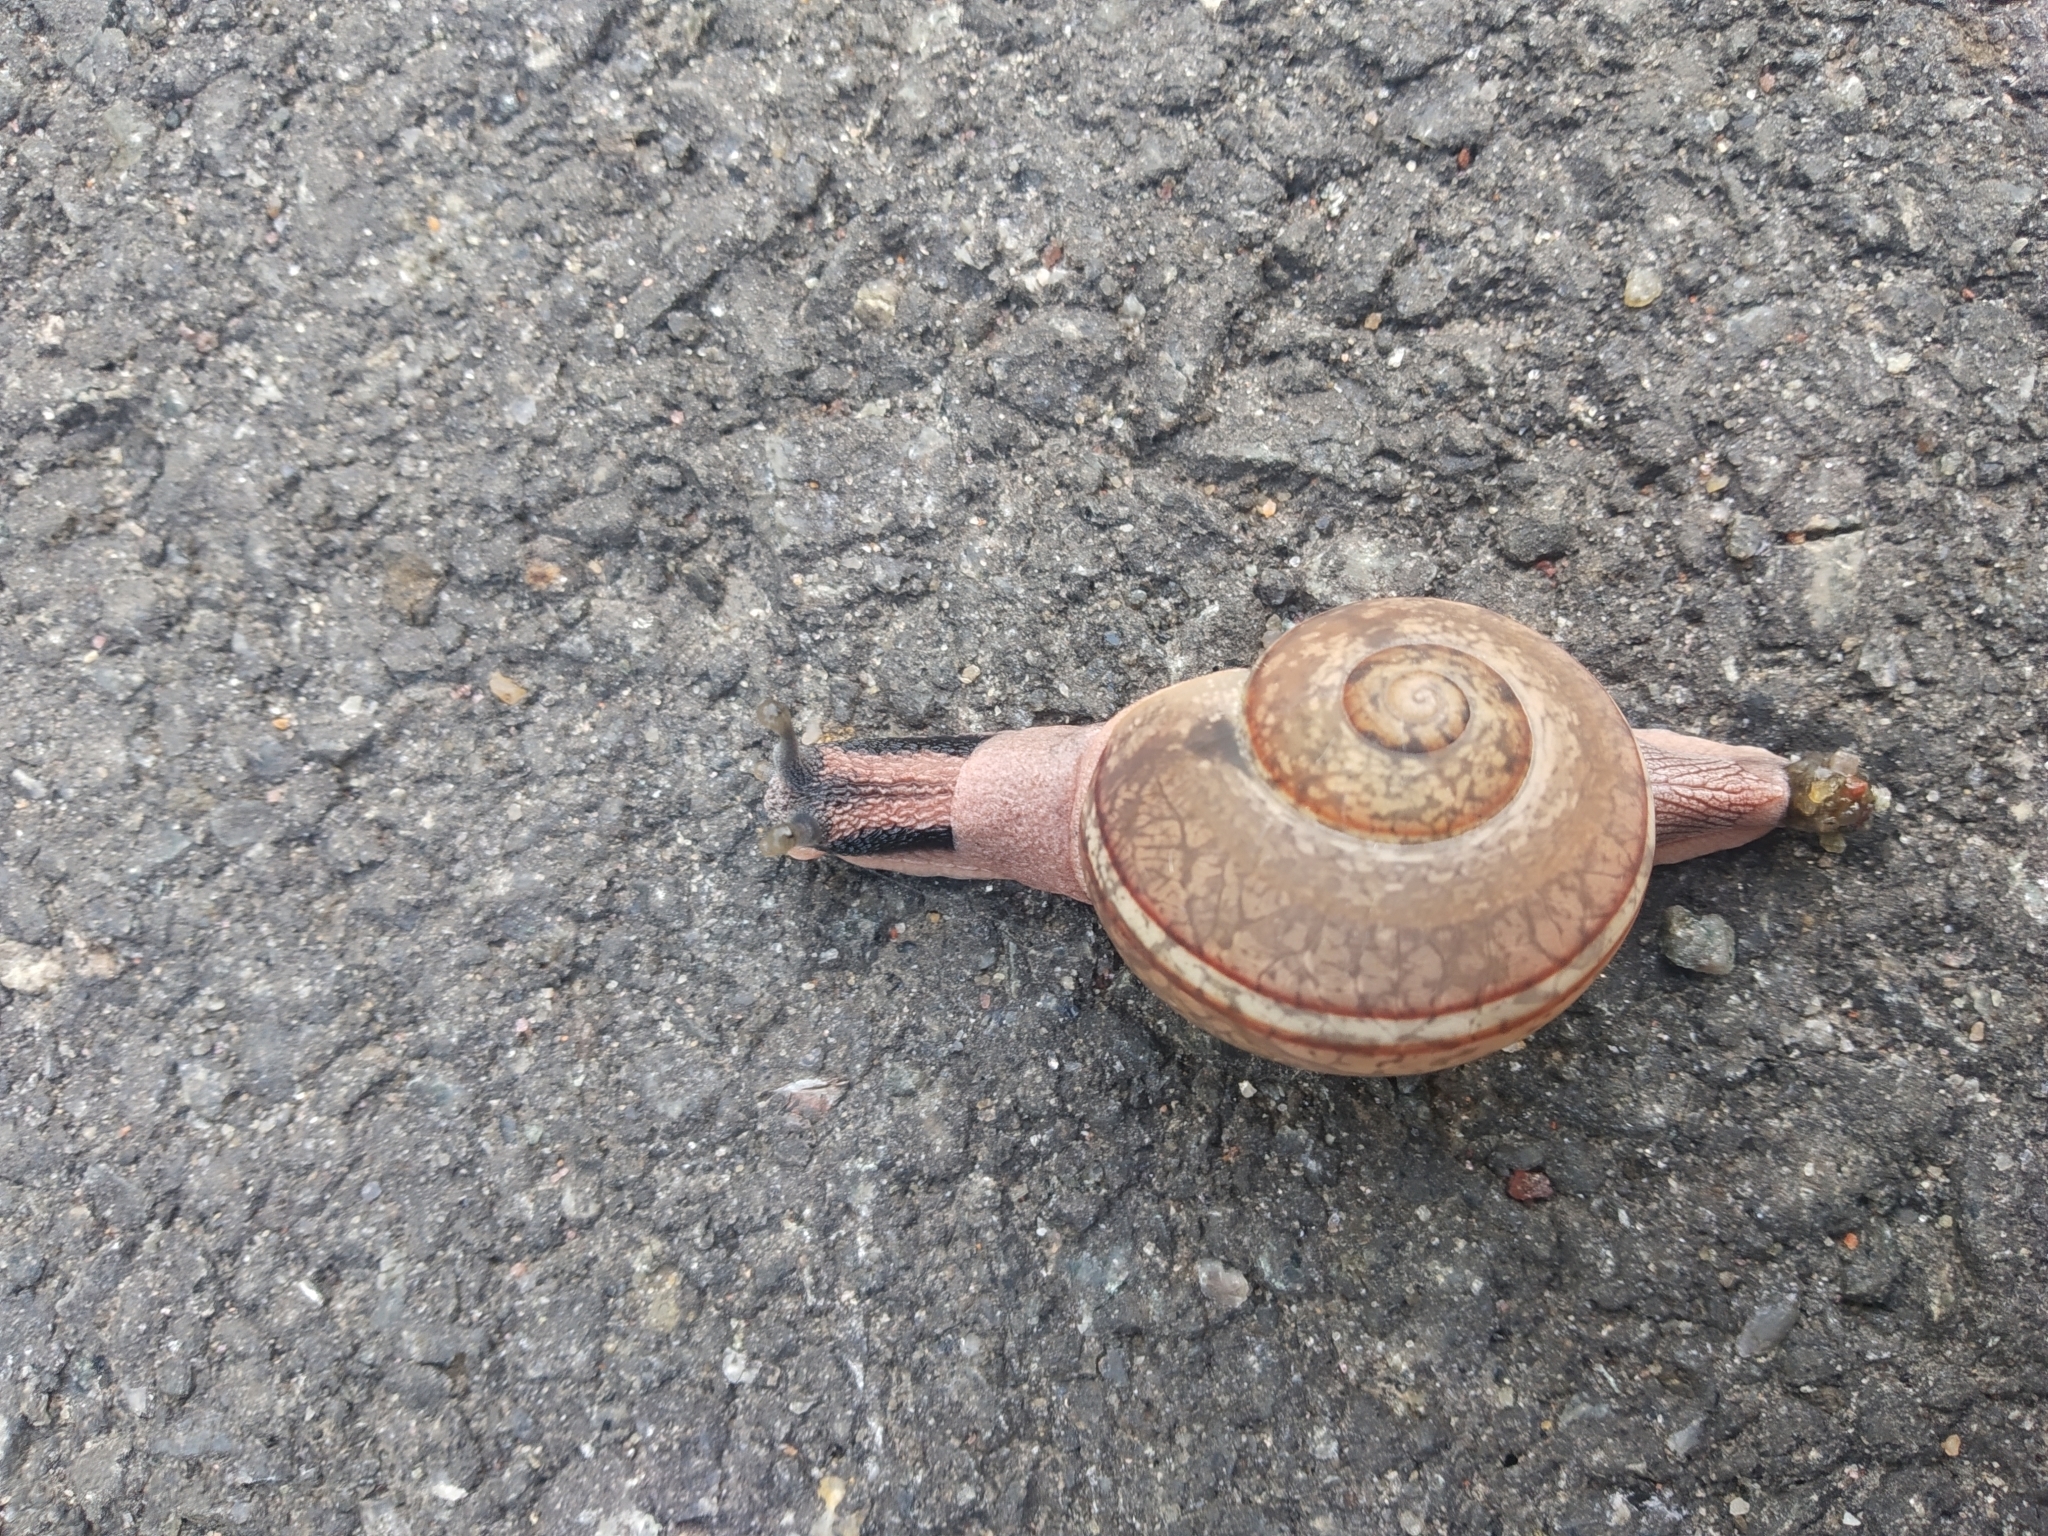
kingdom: Animalia
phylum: Mollusca
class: Gastropoda
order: Stylommatophora
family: Ariophantidae
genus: Ariophanta
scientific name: Ariophanta exilis
